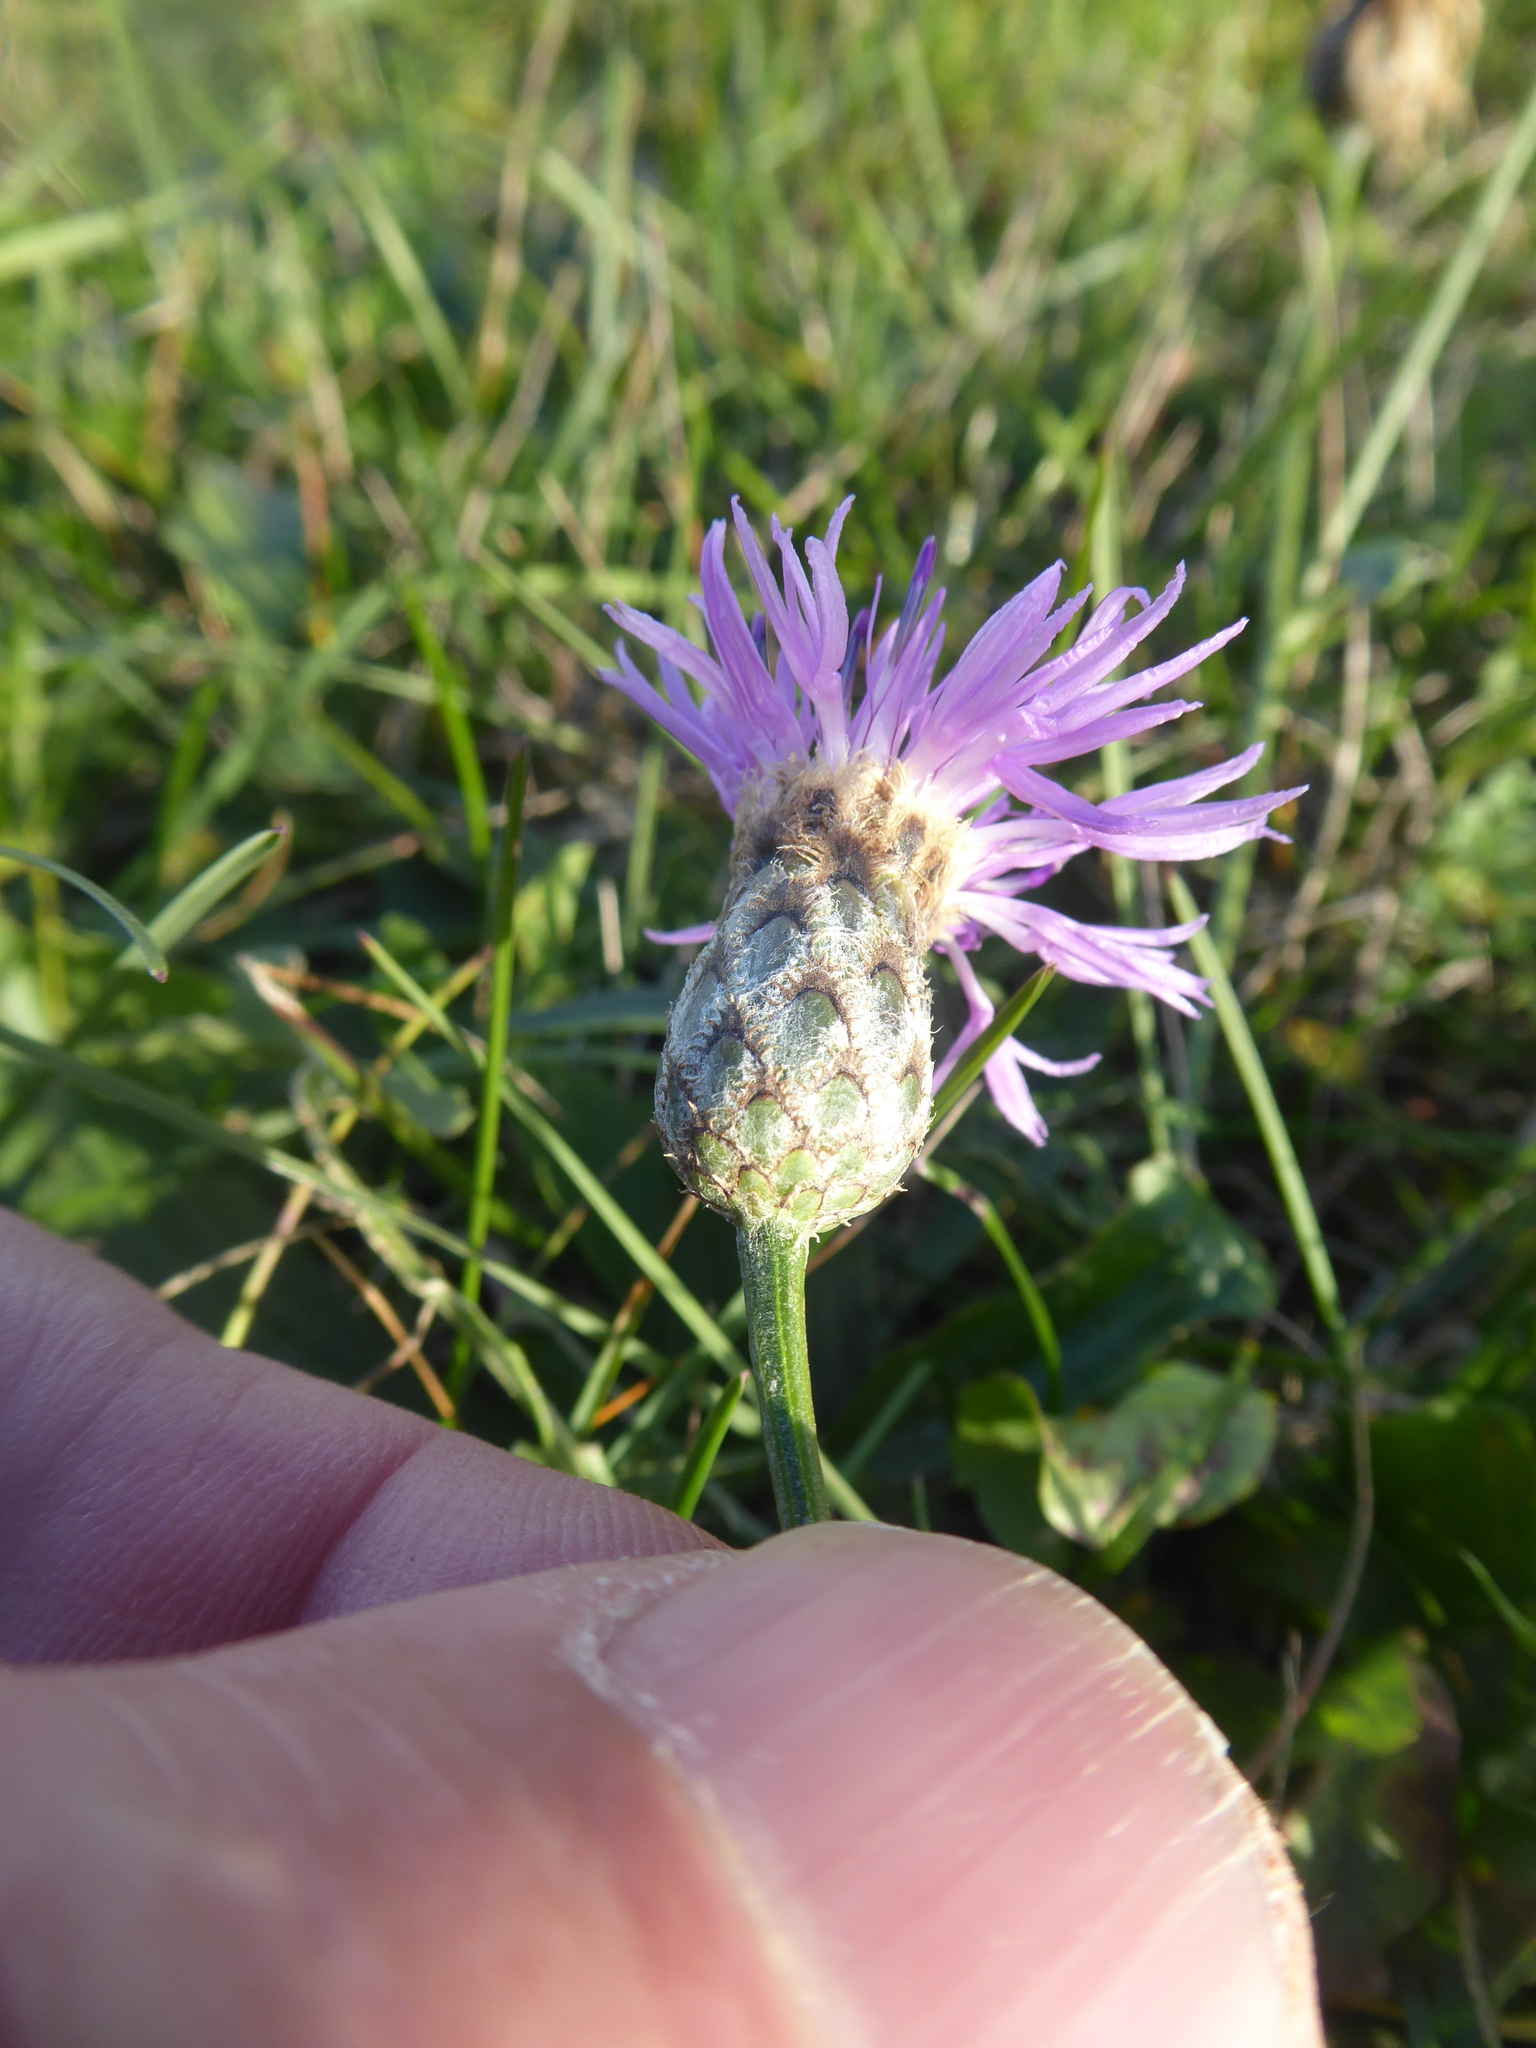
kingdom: Plantae
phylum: Tracheophyta
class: Magnoliopsida
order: Asterales
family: Asteraceae
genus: Centaurea
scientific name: Centaurea scabiosa
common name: Greater knapweed
